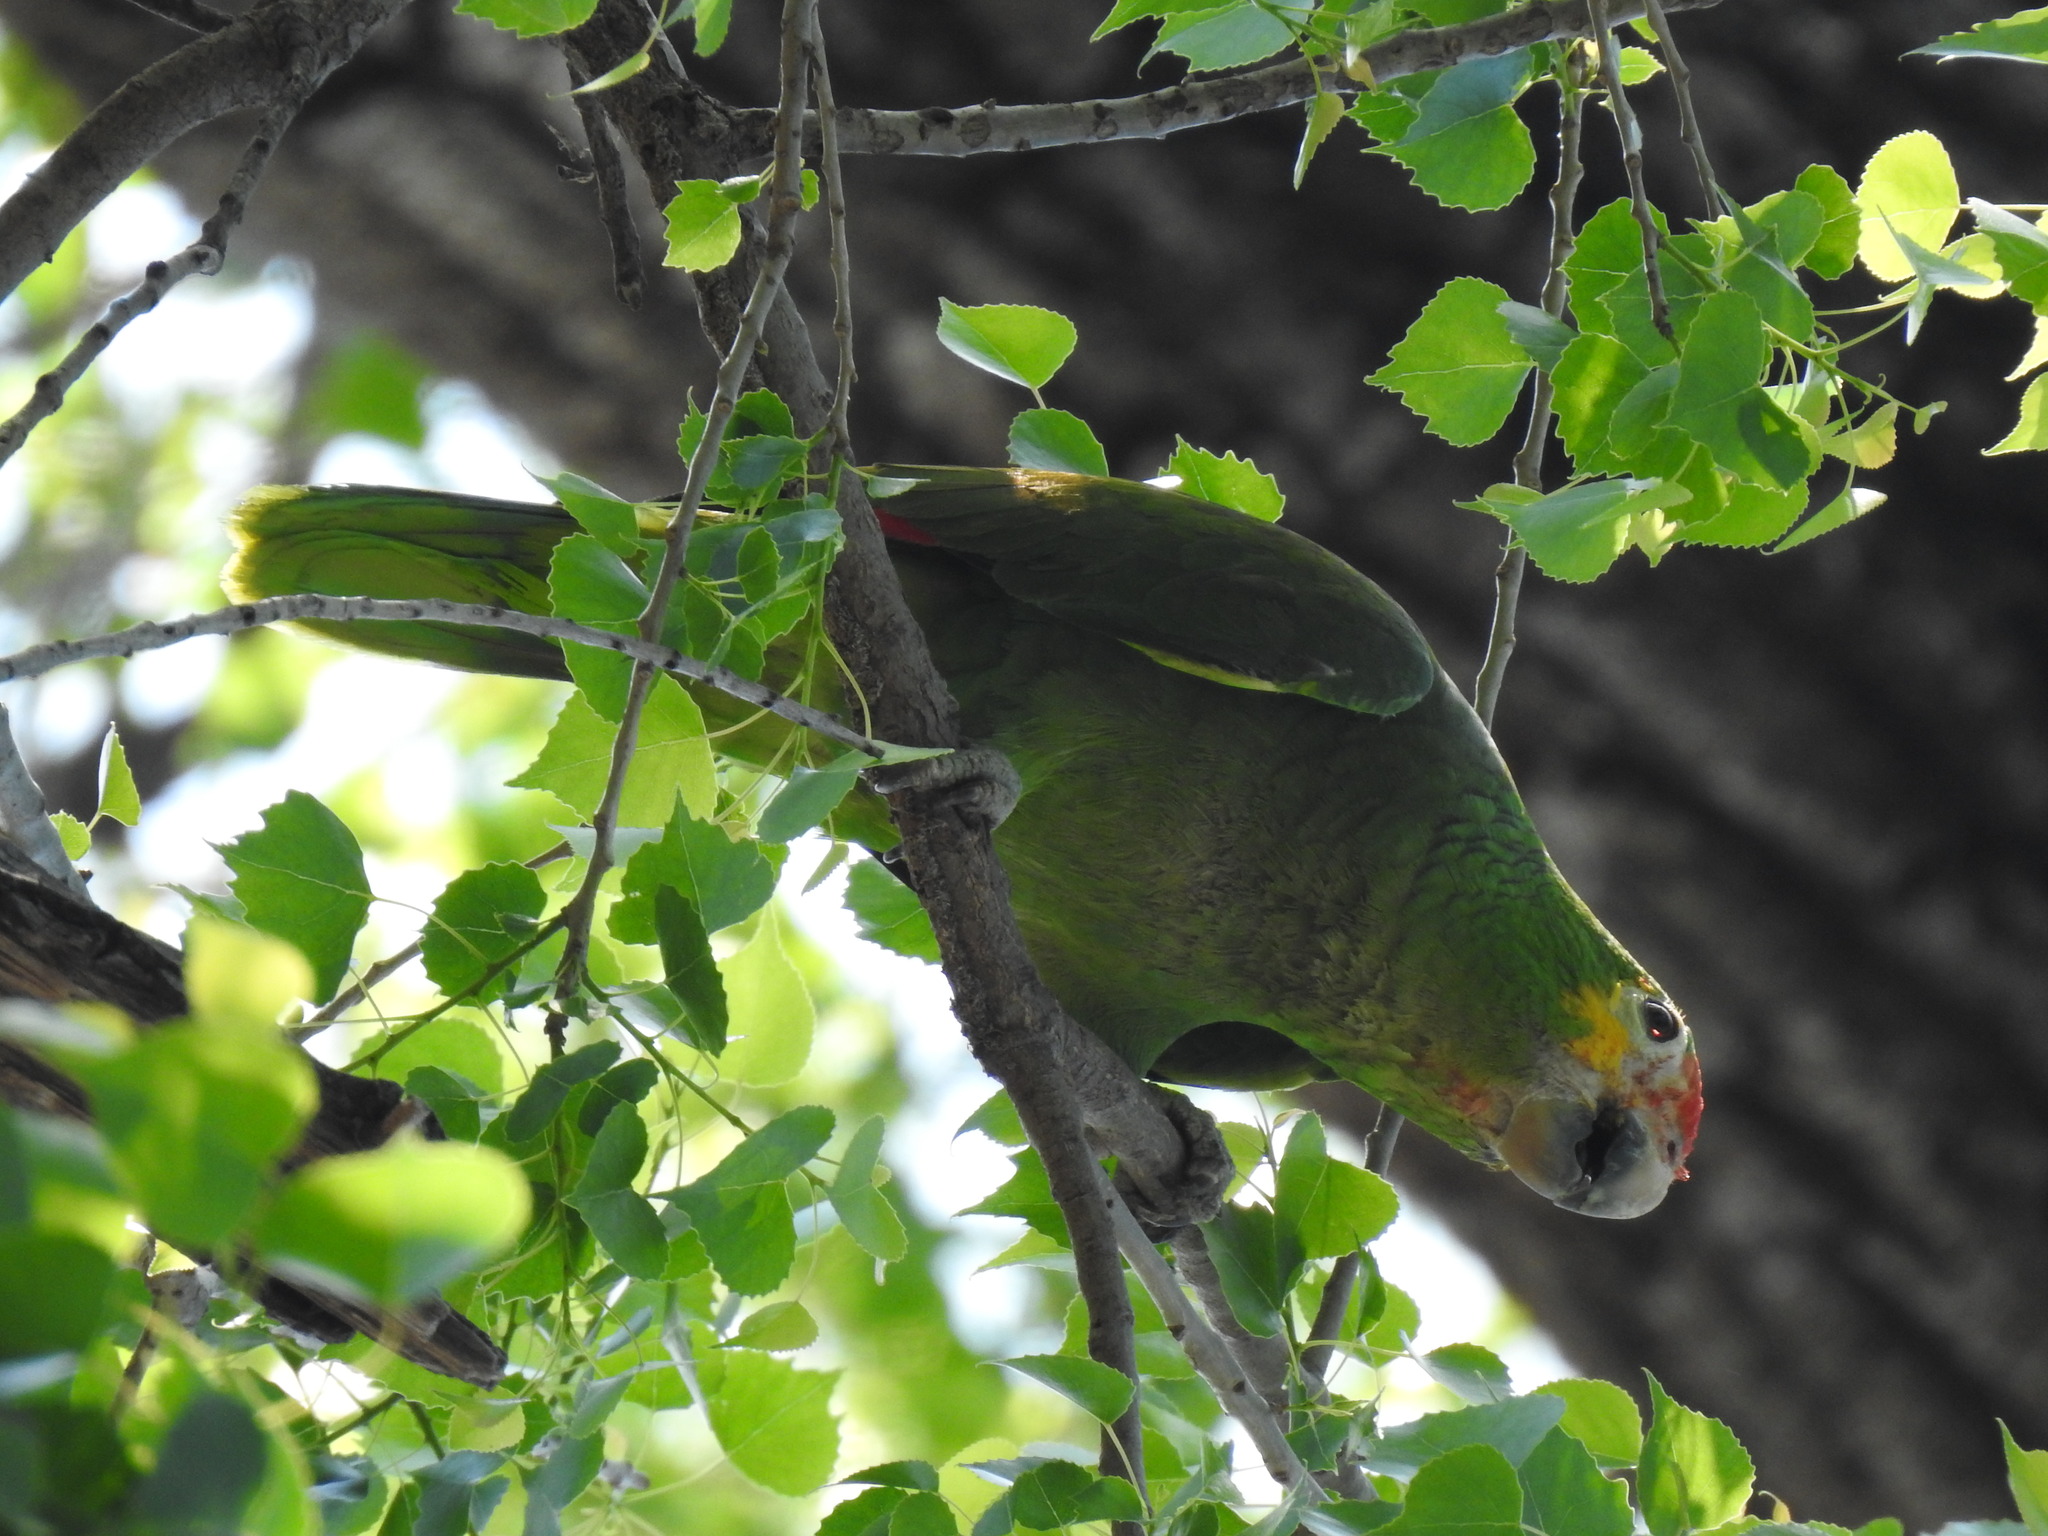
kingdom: Animalia
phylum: Chordata
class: Aves
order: Psittaciformes
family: Psittacidae
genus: Amazona
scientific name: Amazona autumnalis
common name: Red-lored amazon
